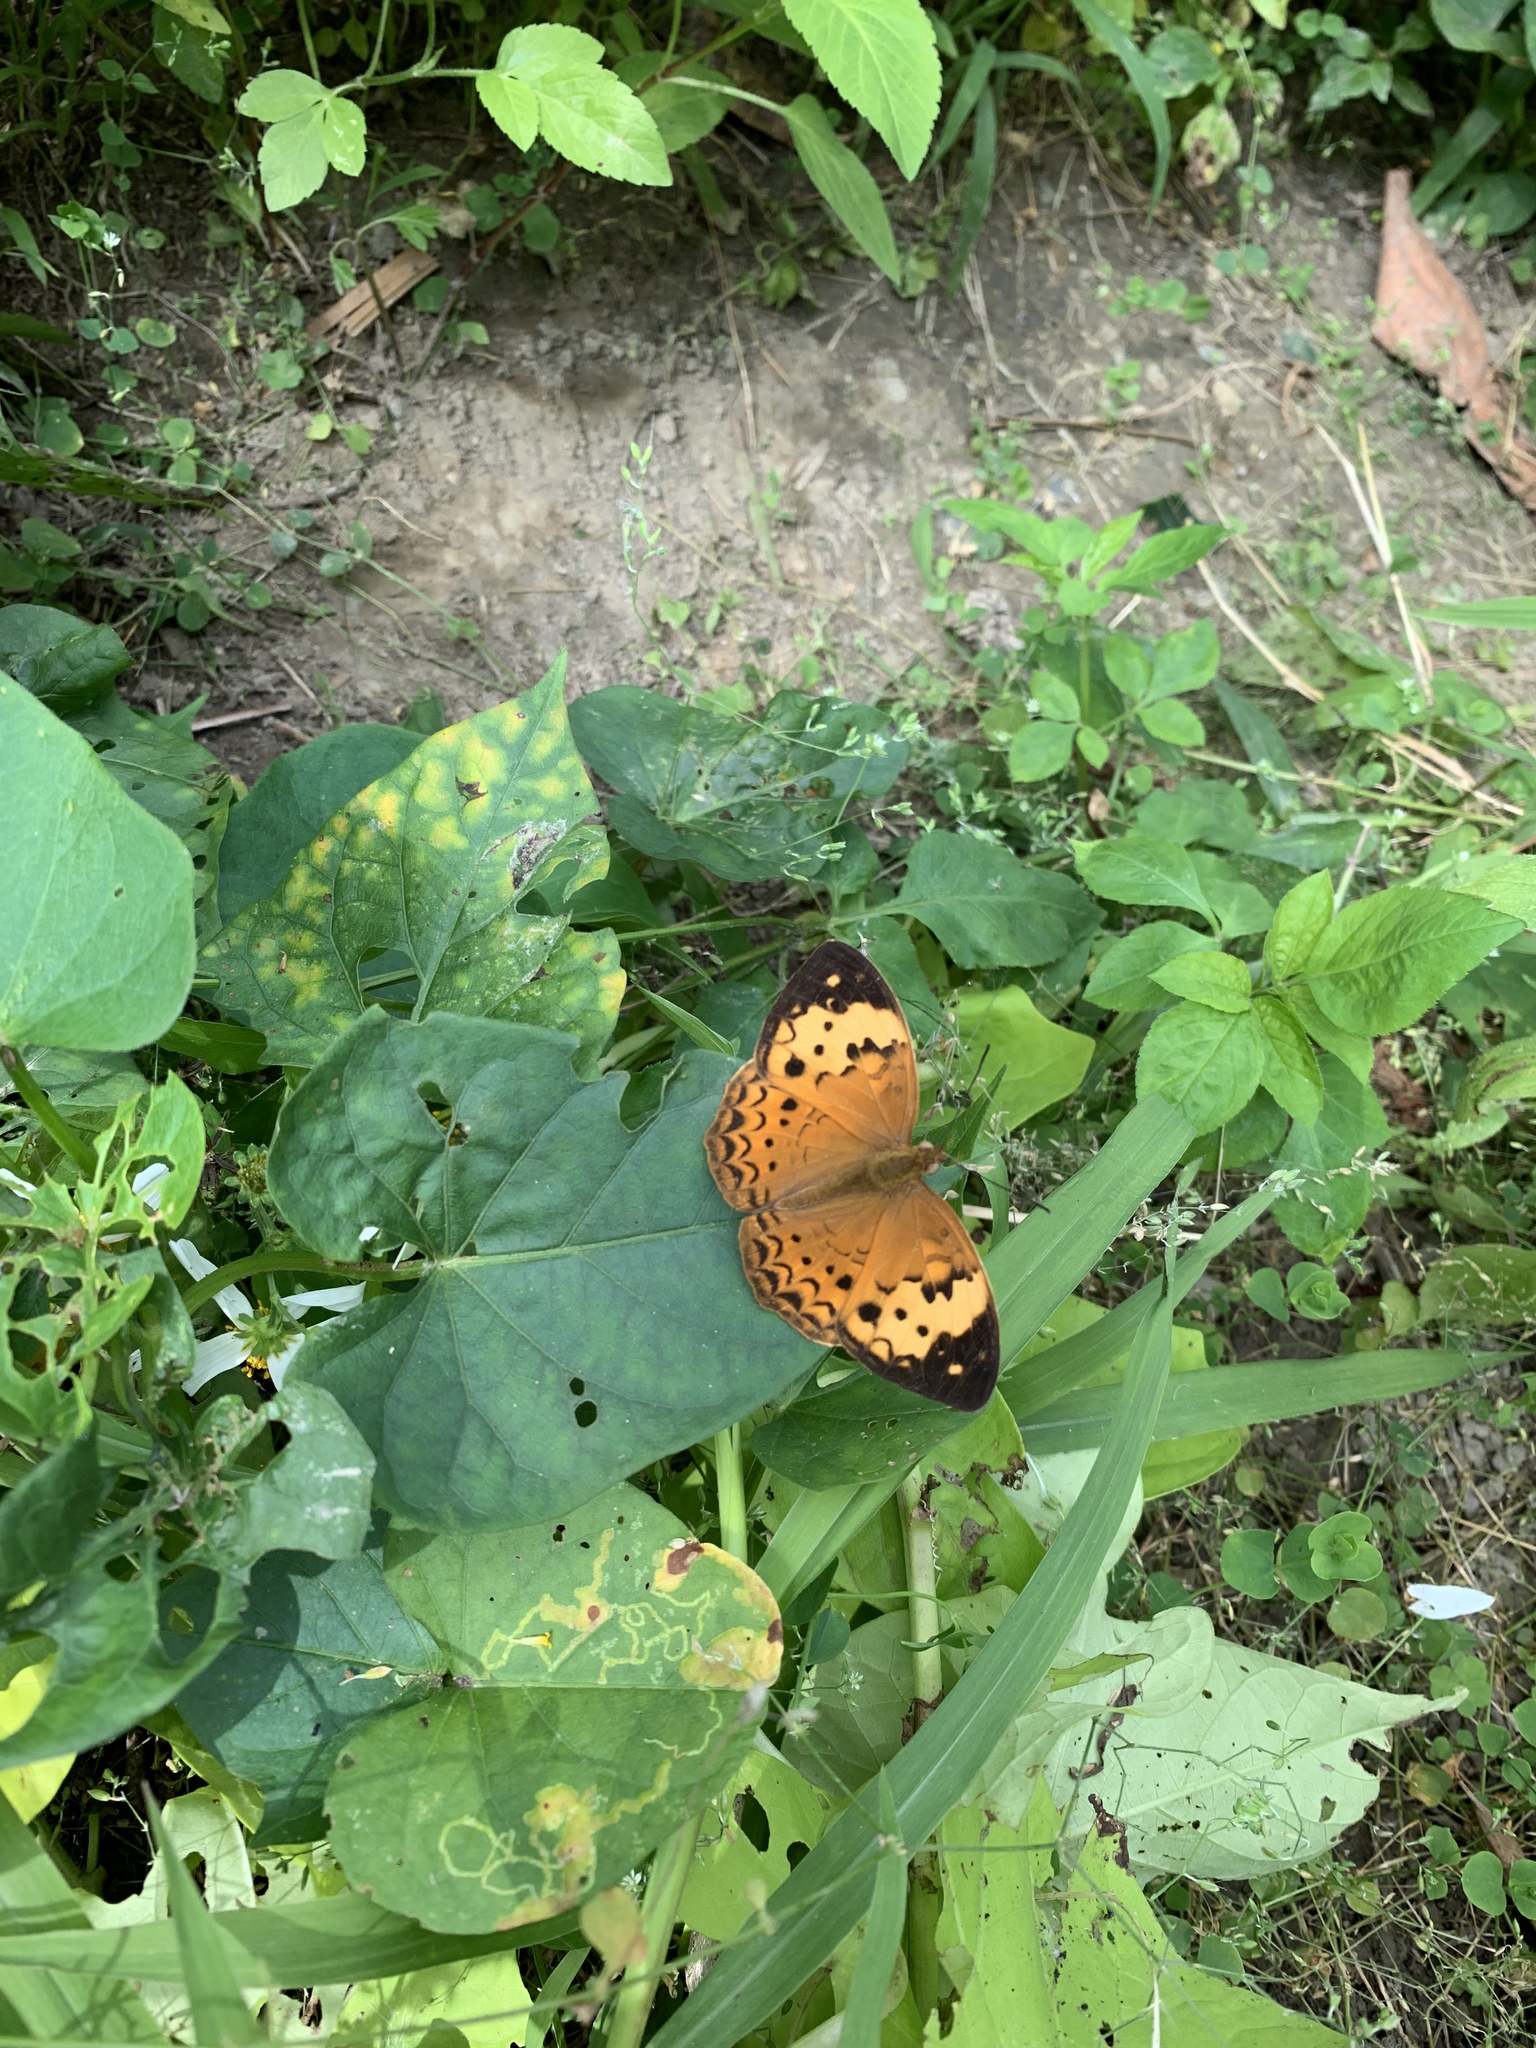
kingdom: Animalia
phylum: Arthropoda
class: Insecta
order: Lepidoptera
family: Nymphalidae
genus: Cupha
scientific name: Cupha erymanthis
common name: Rustic
